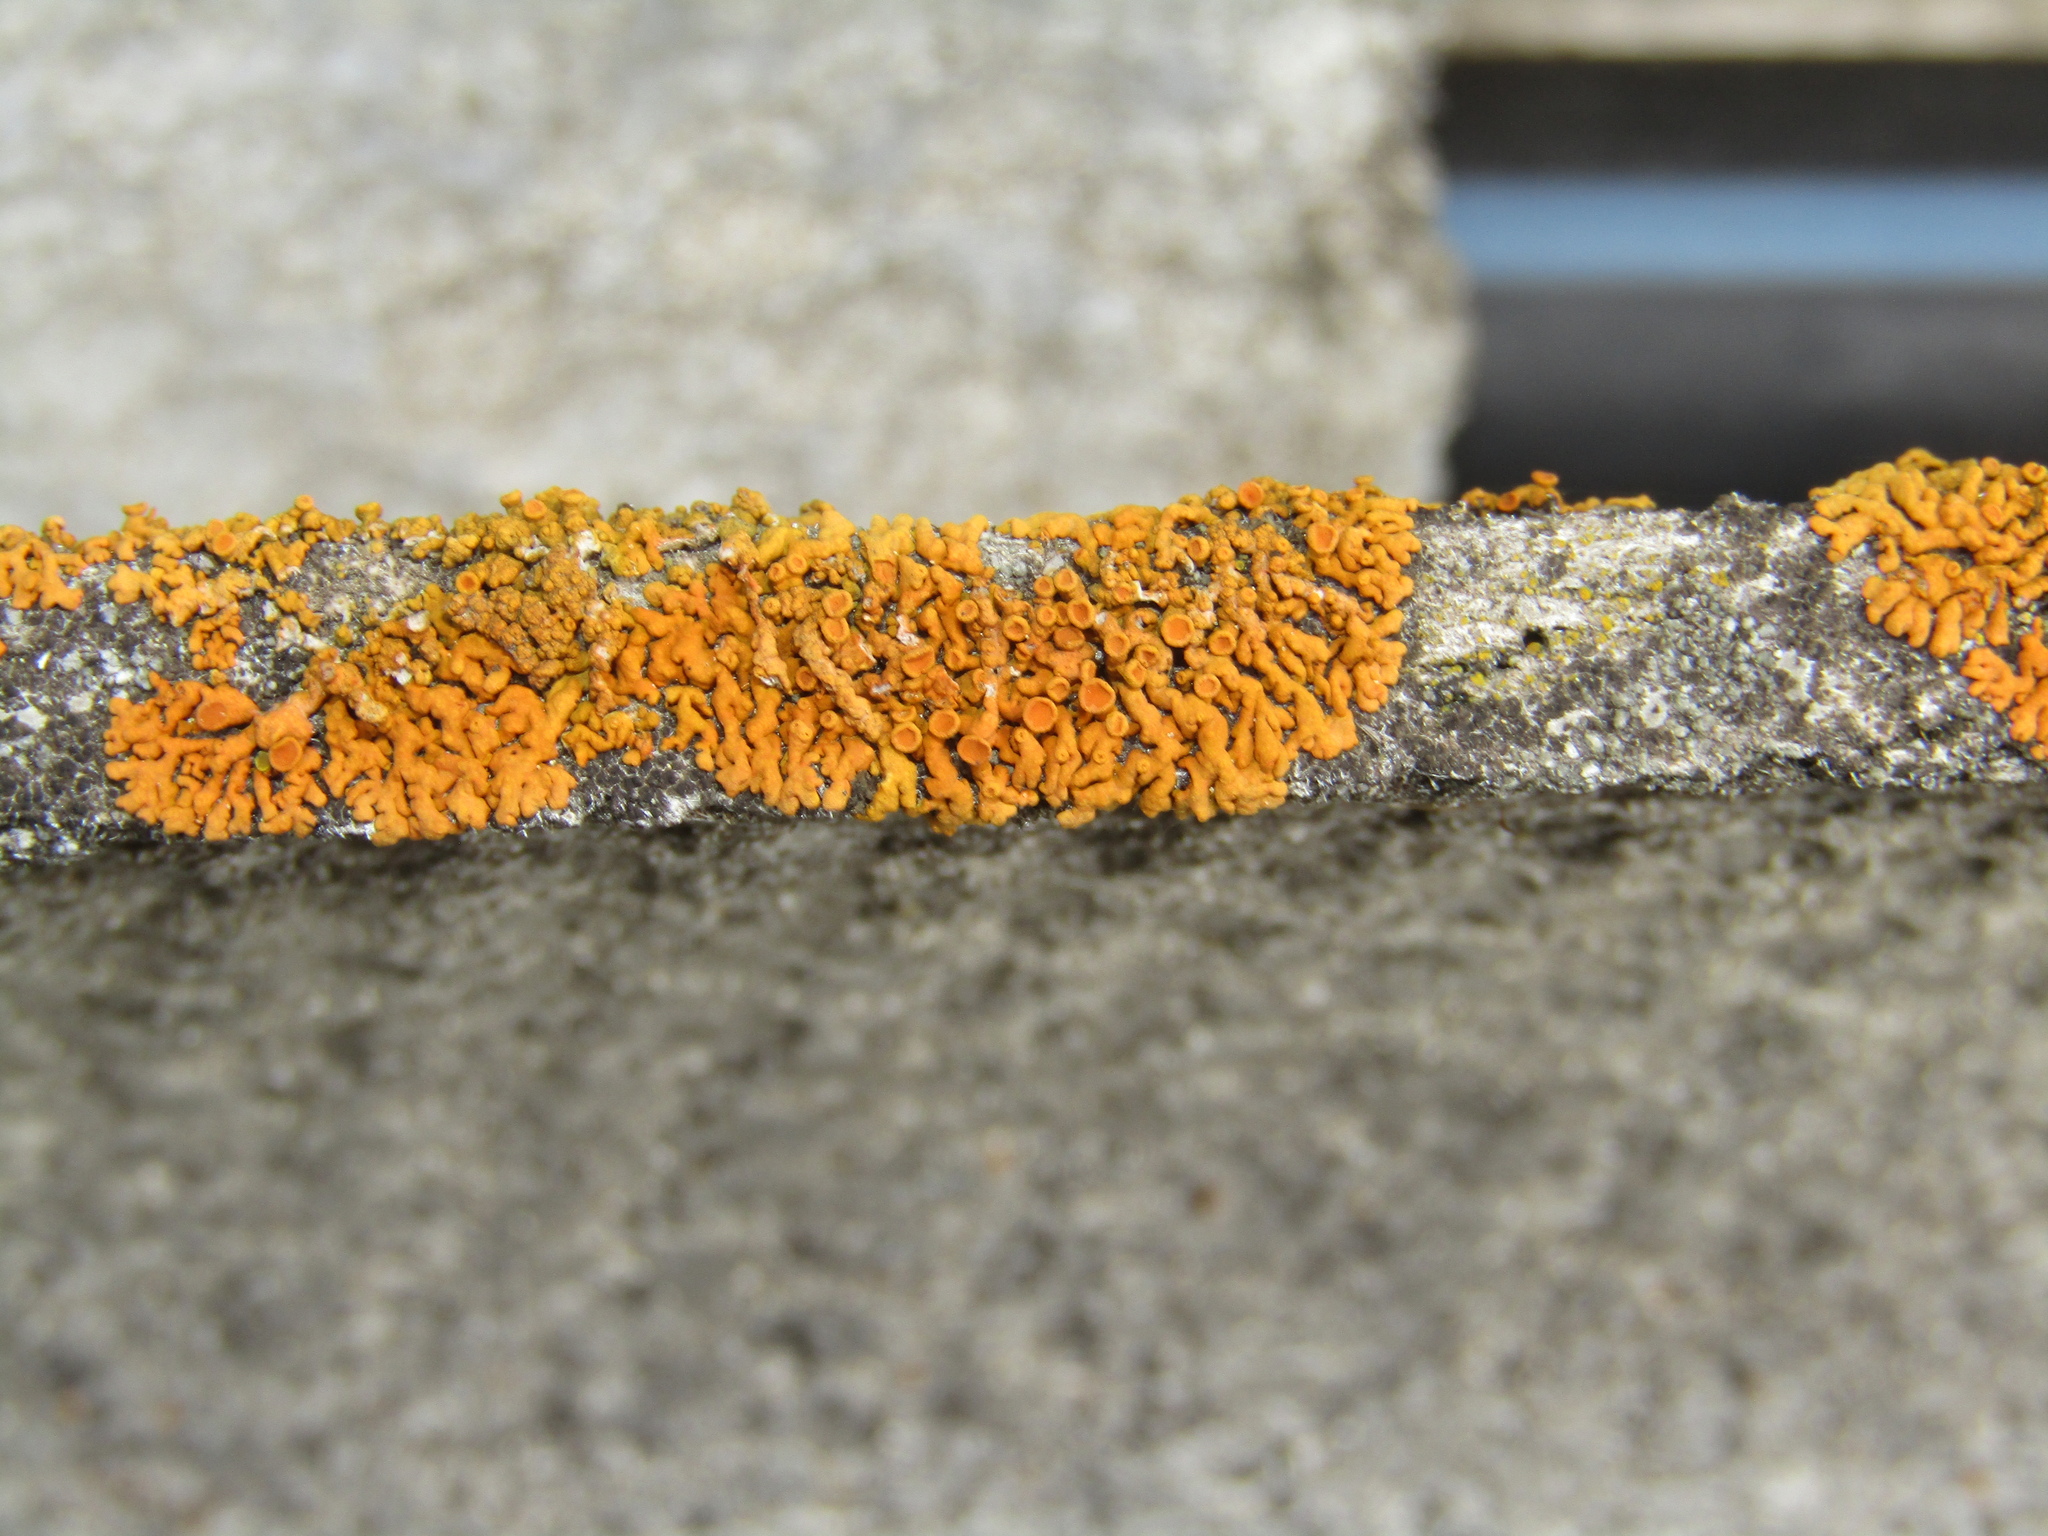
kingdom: Fungi
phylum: Ascomycota
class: Lecanoromycetes
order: Teloschistales
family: Teloschistaceae
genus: Xanthoria
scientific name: Xanthoria elegans
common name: Elegant sunburst lichen
